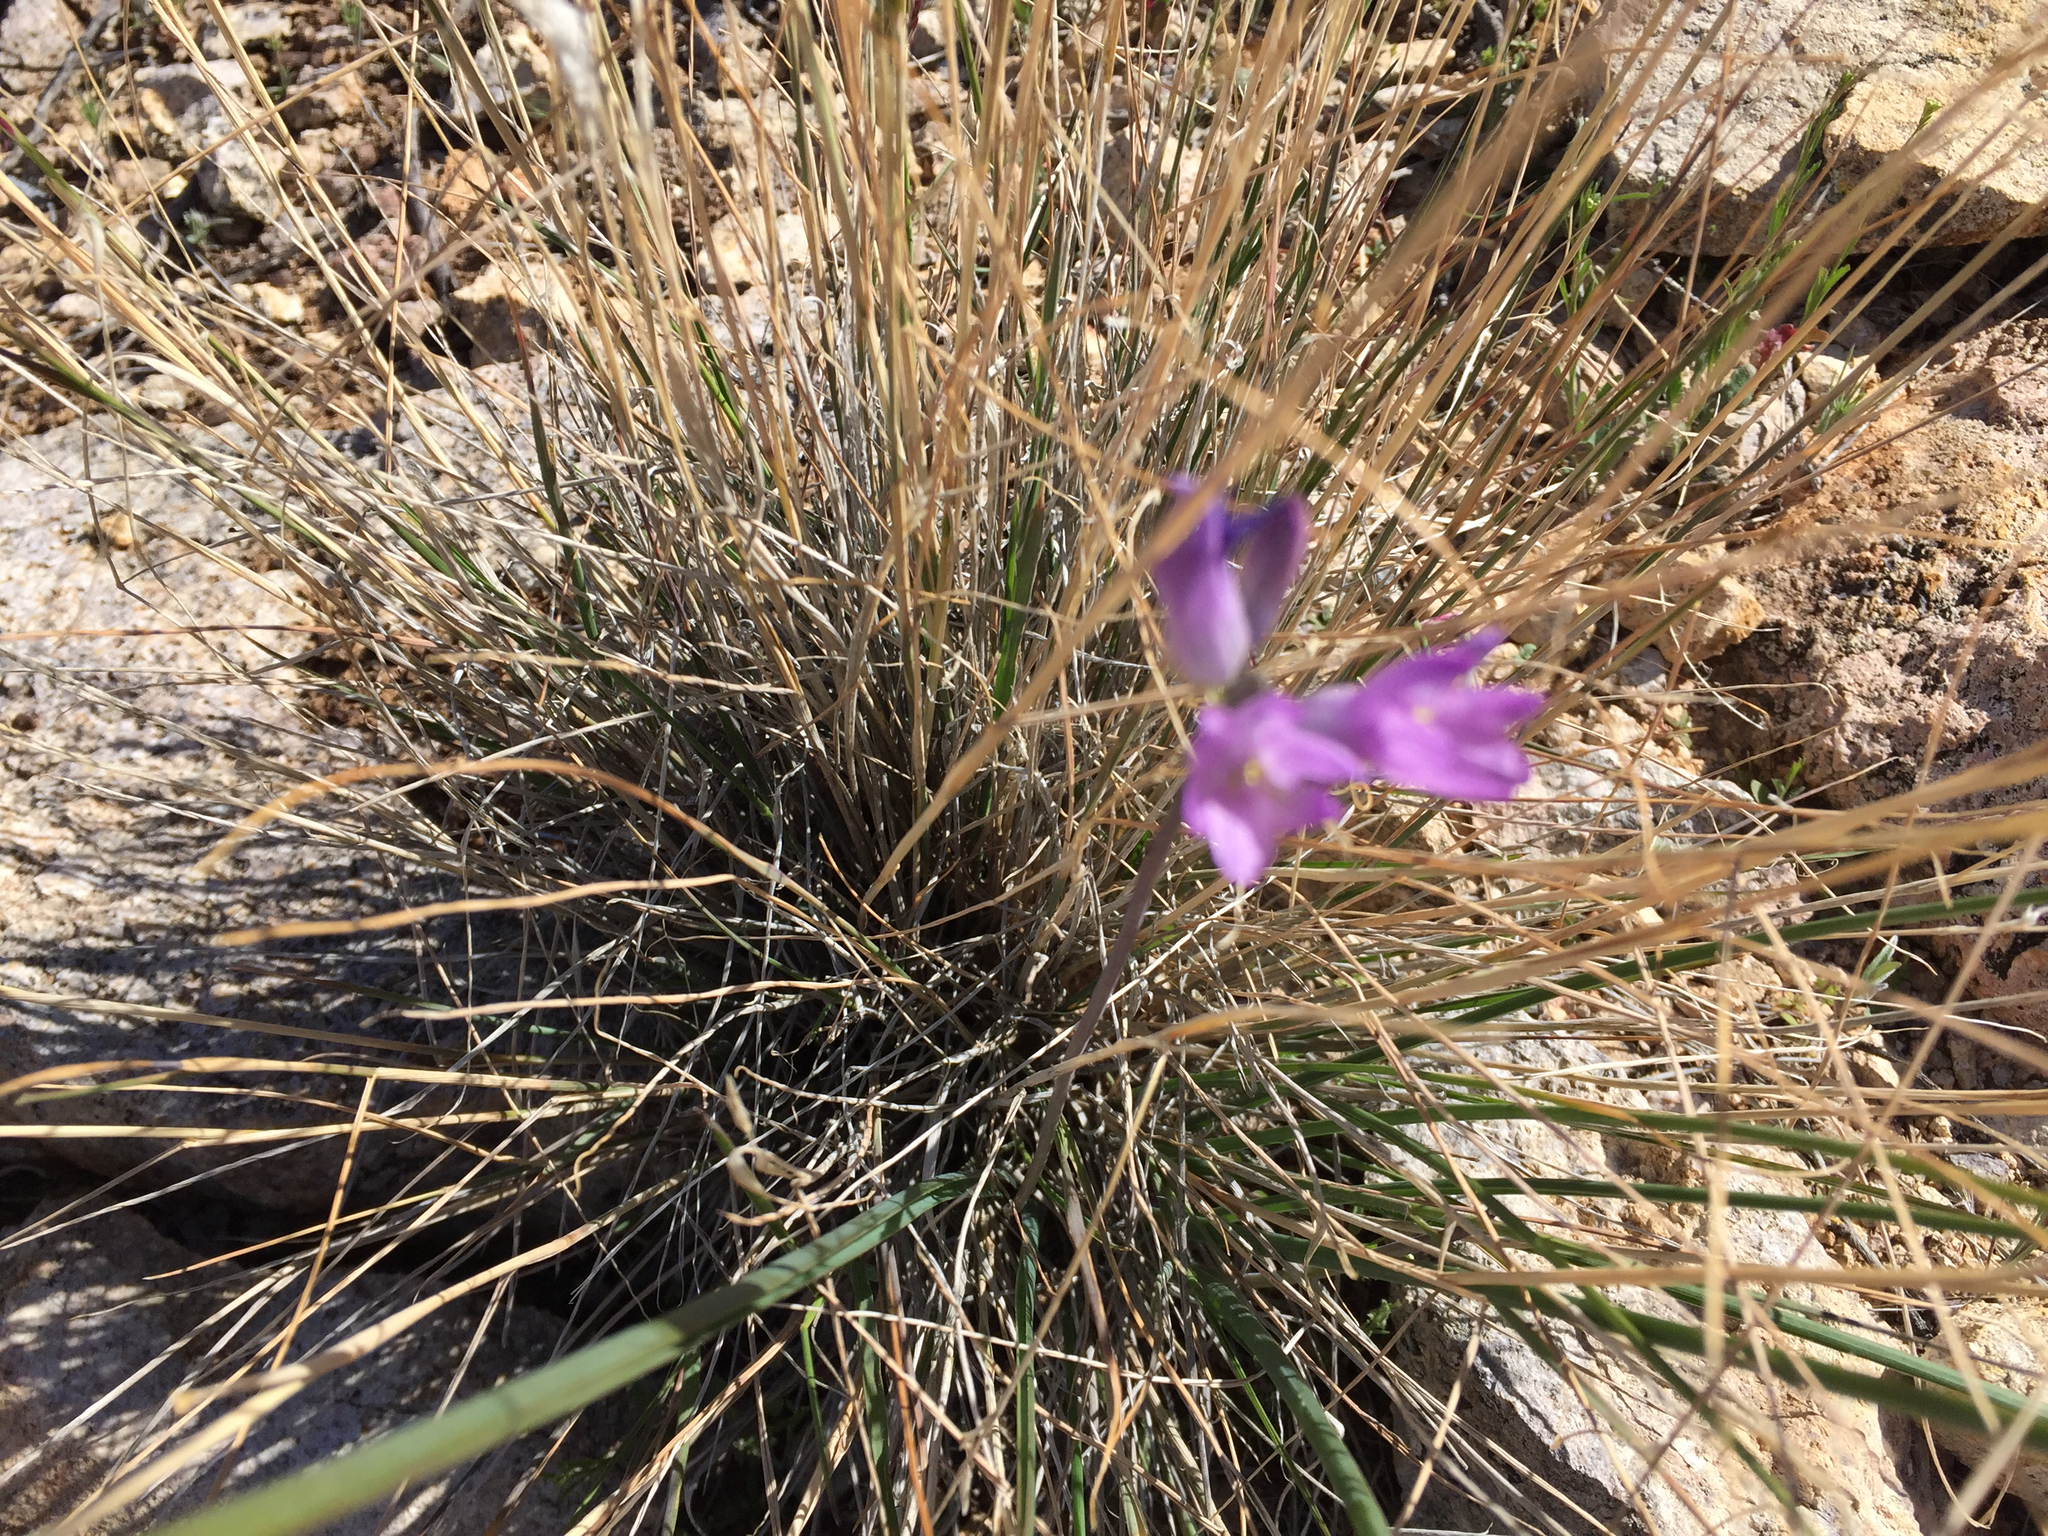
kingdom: Plantae
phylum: Tracheophyta
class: Liliopsida
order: Asparagales
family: Asparagaceae
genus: Dipterostemon
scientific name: Dipterostemon capitatus
